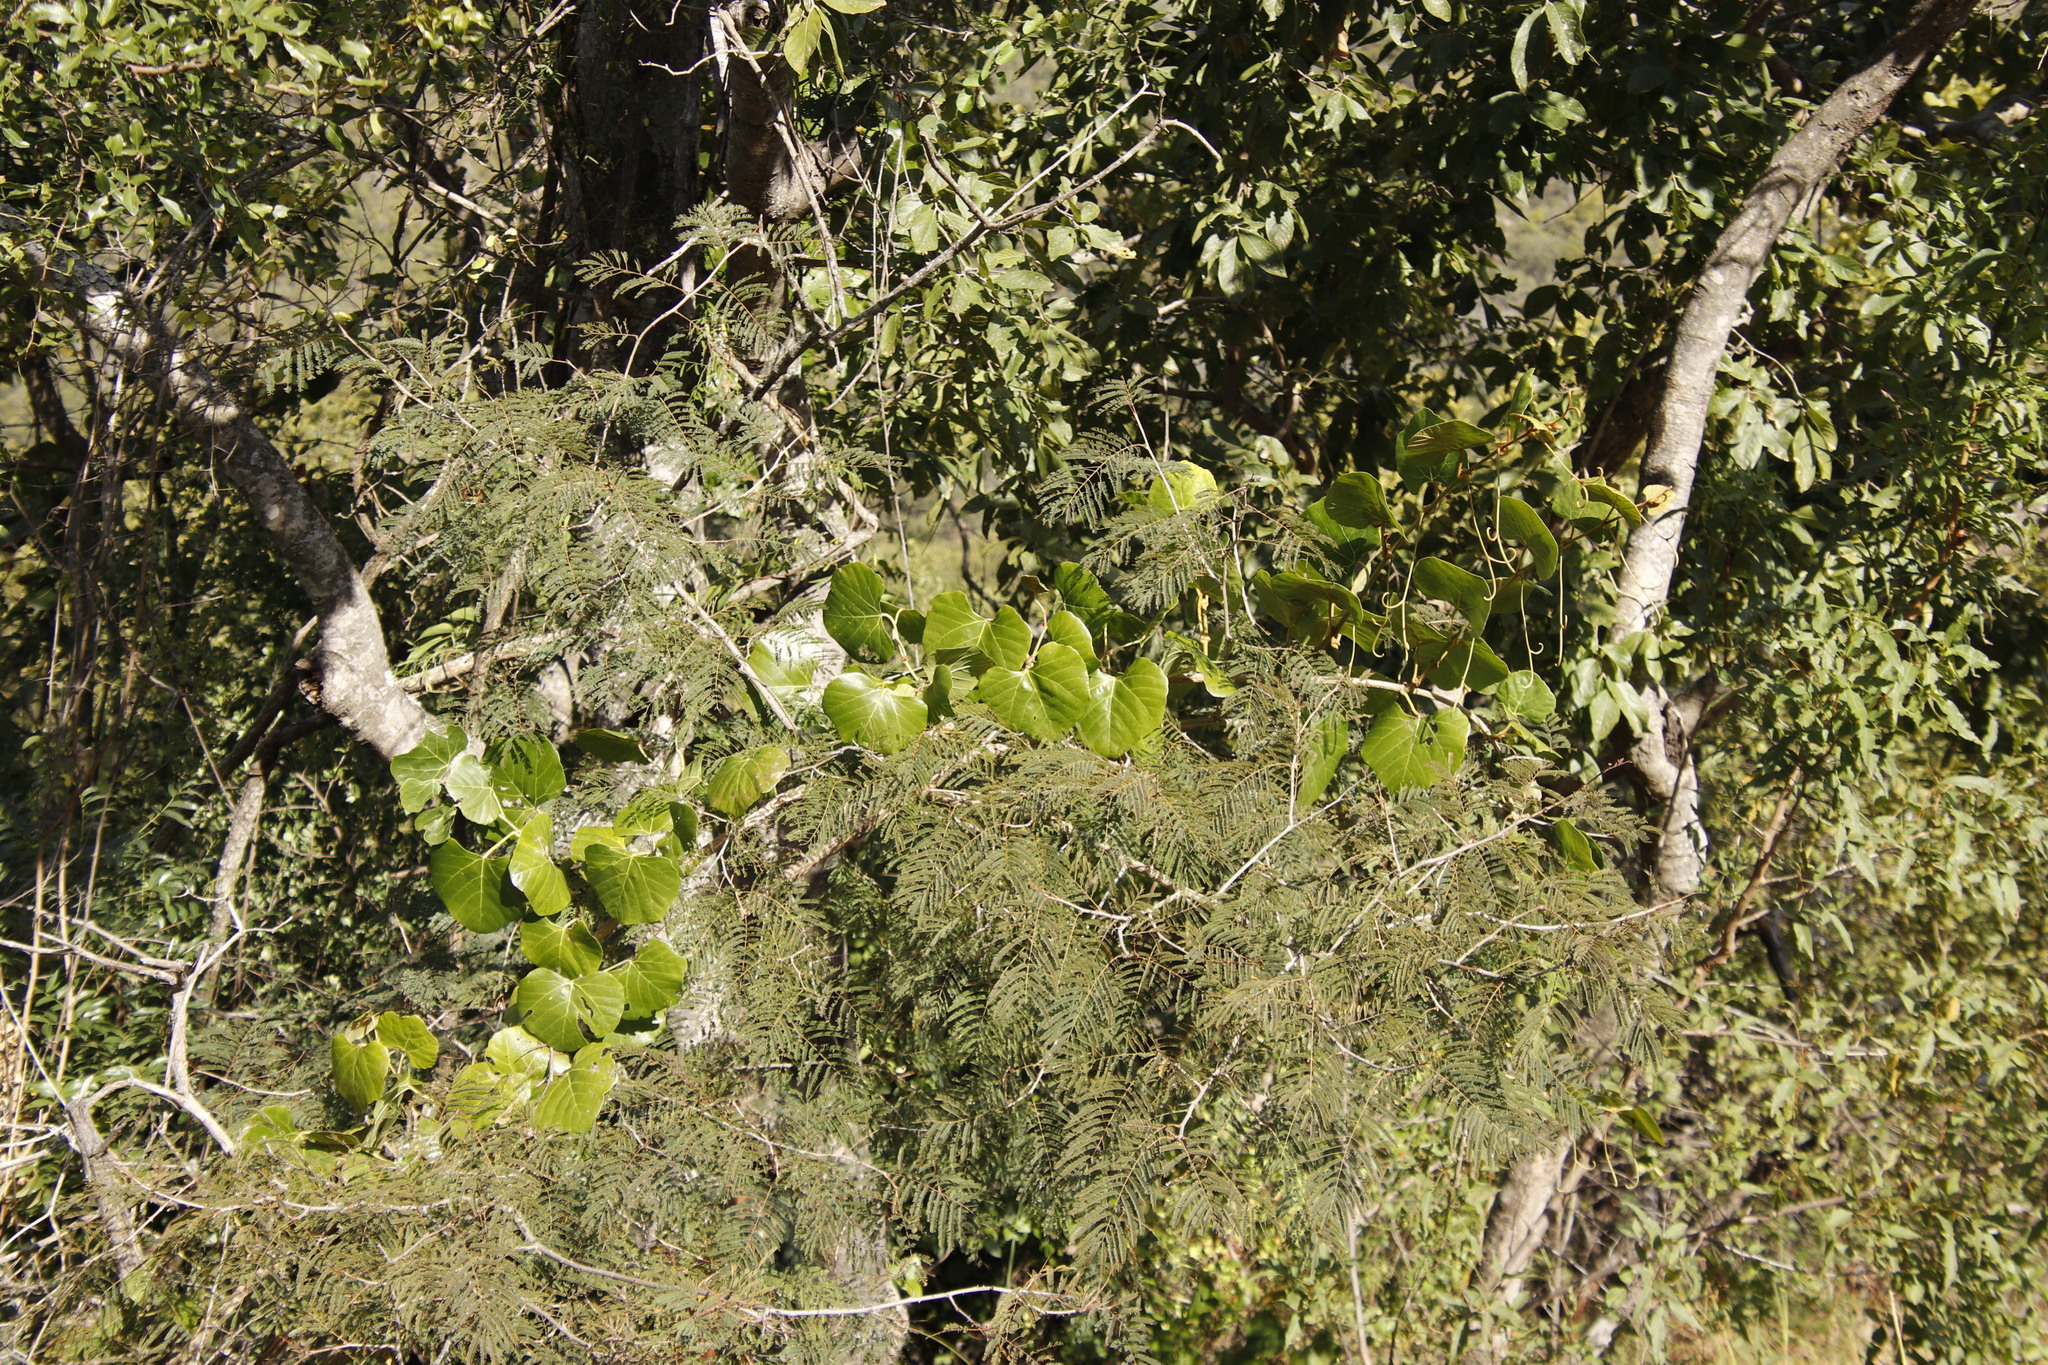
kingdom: Plantae
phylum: Tracheophyta
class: Magnoliopsida
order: Vitales
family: Vitaceae
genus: Rhoicissus
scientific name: Rhoicissus tomentosa
